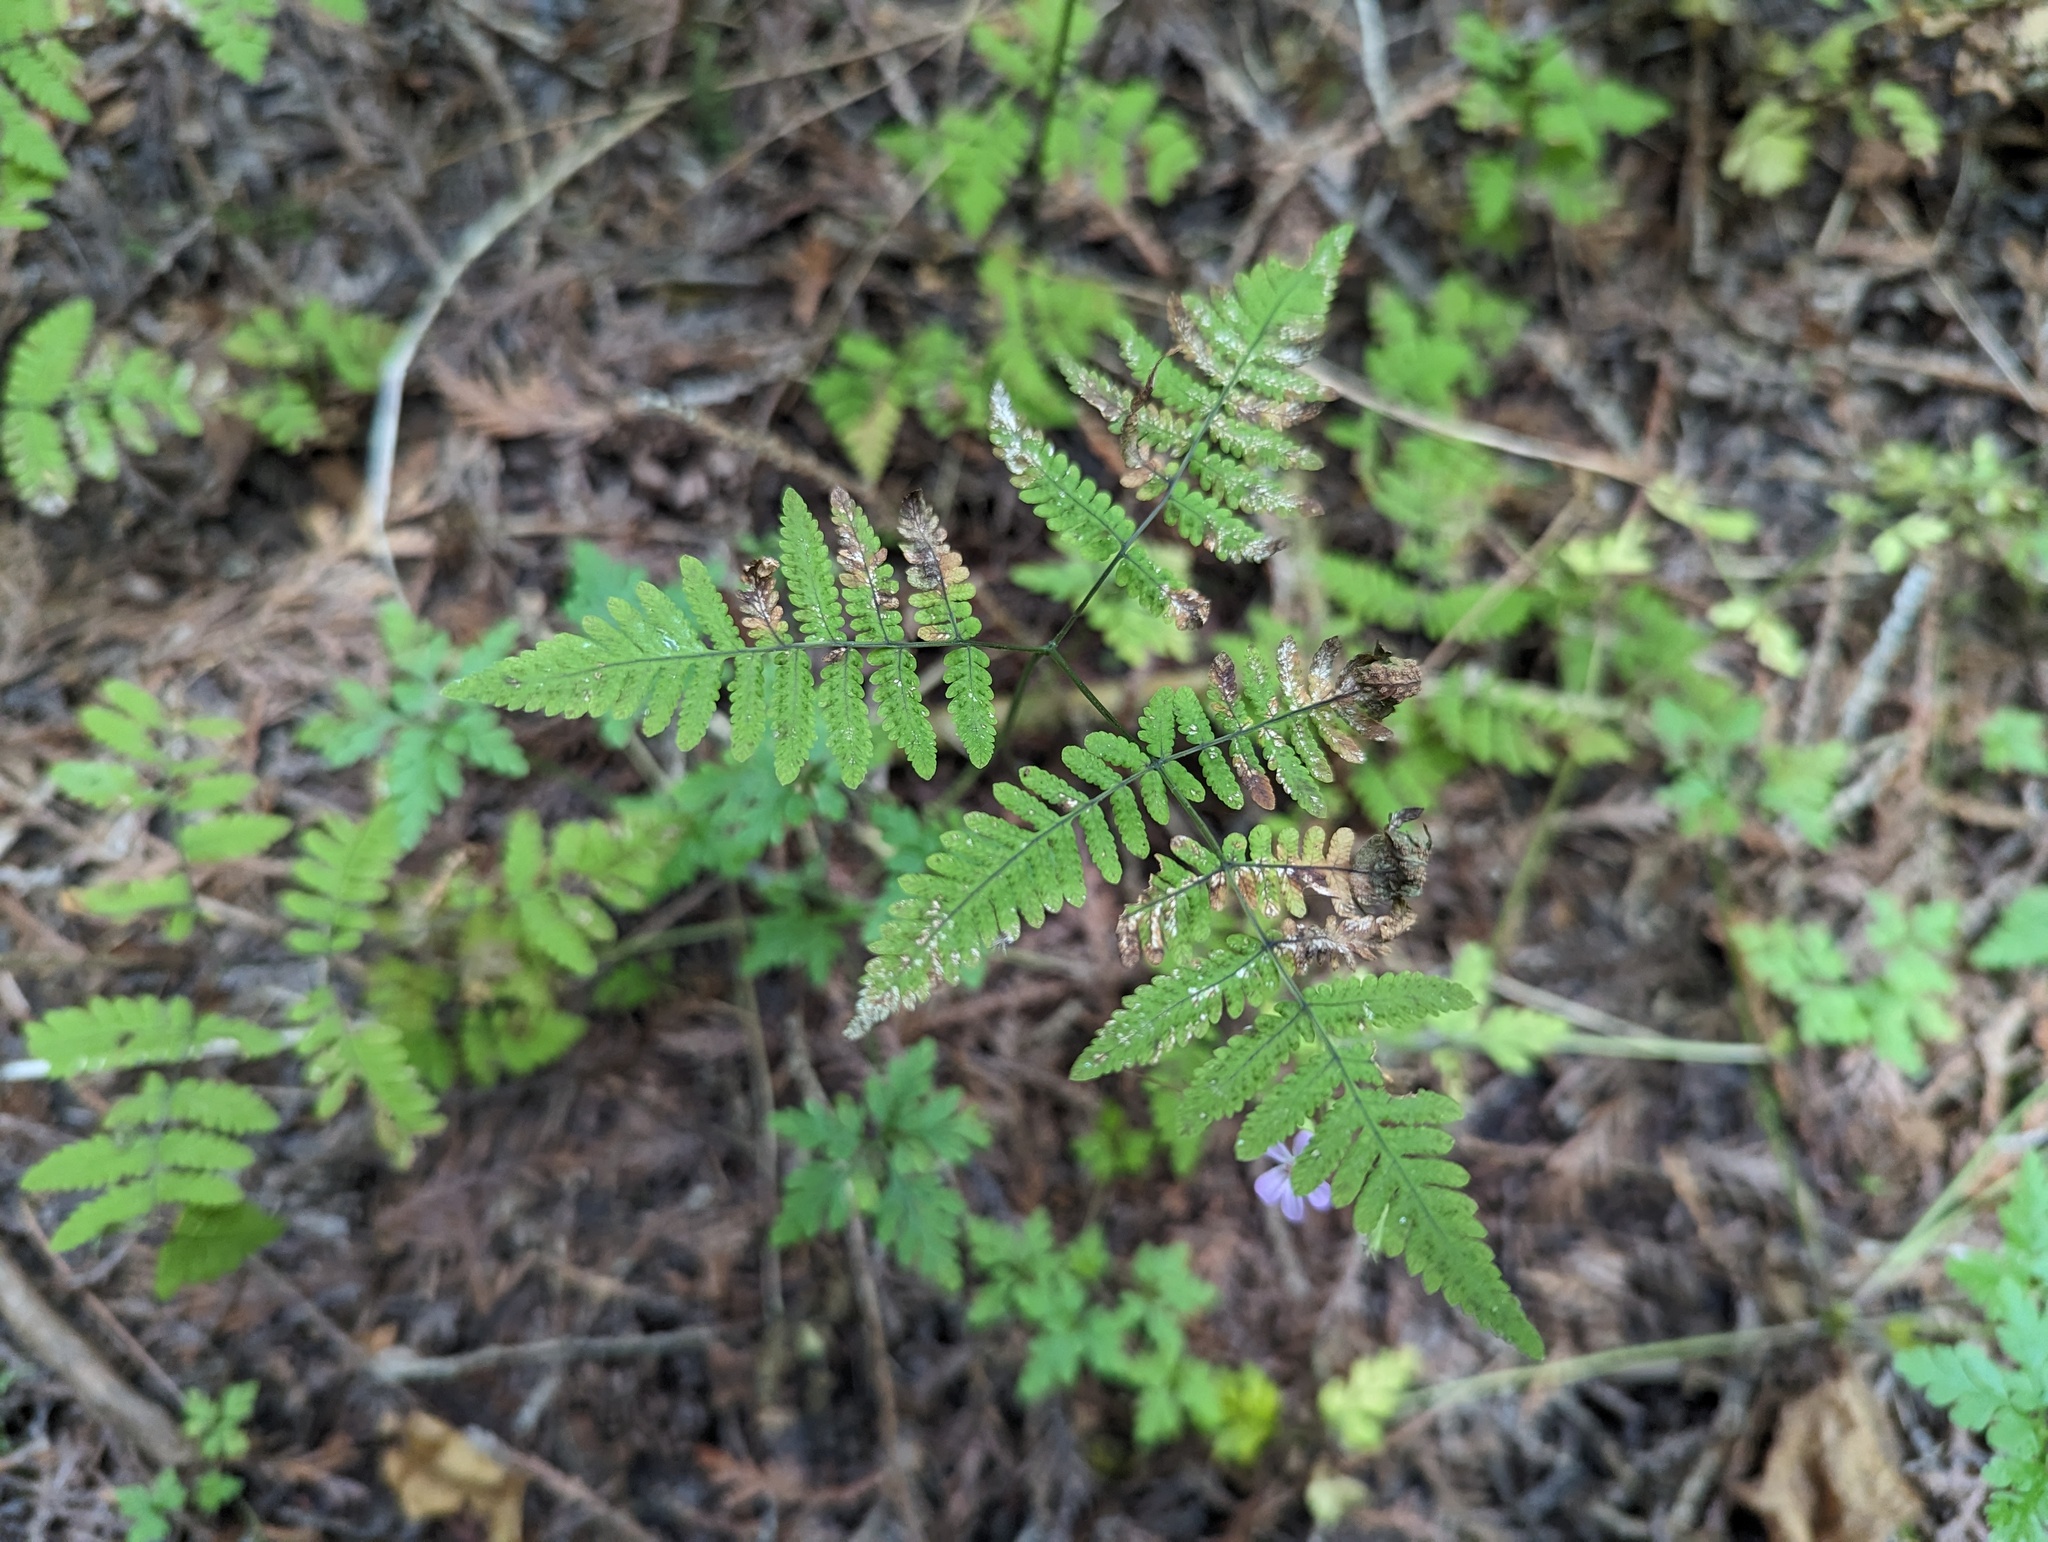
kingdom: Plantae
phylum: Tracheophyta
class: Polypodiopsida
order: Polypodiales
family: Cystopteridaceae
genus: Gymnocarpium
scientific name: Gymnocarpium dryopteris
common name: Oak fern
